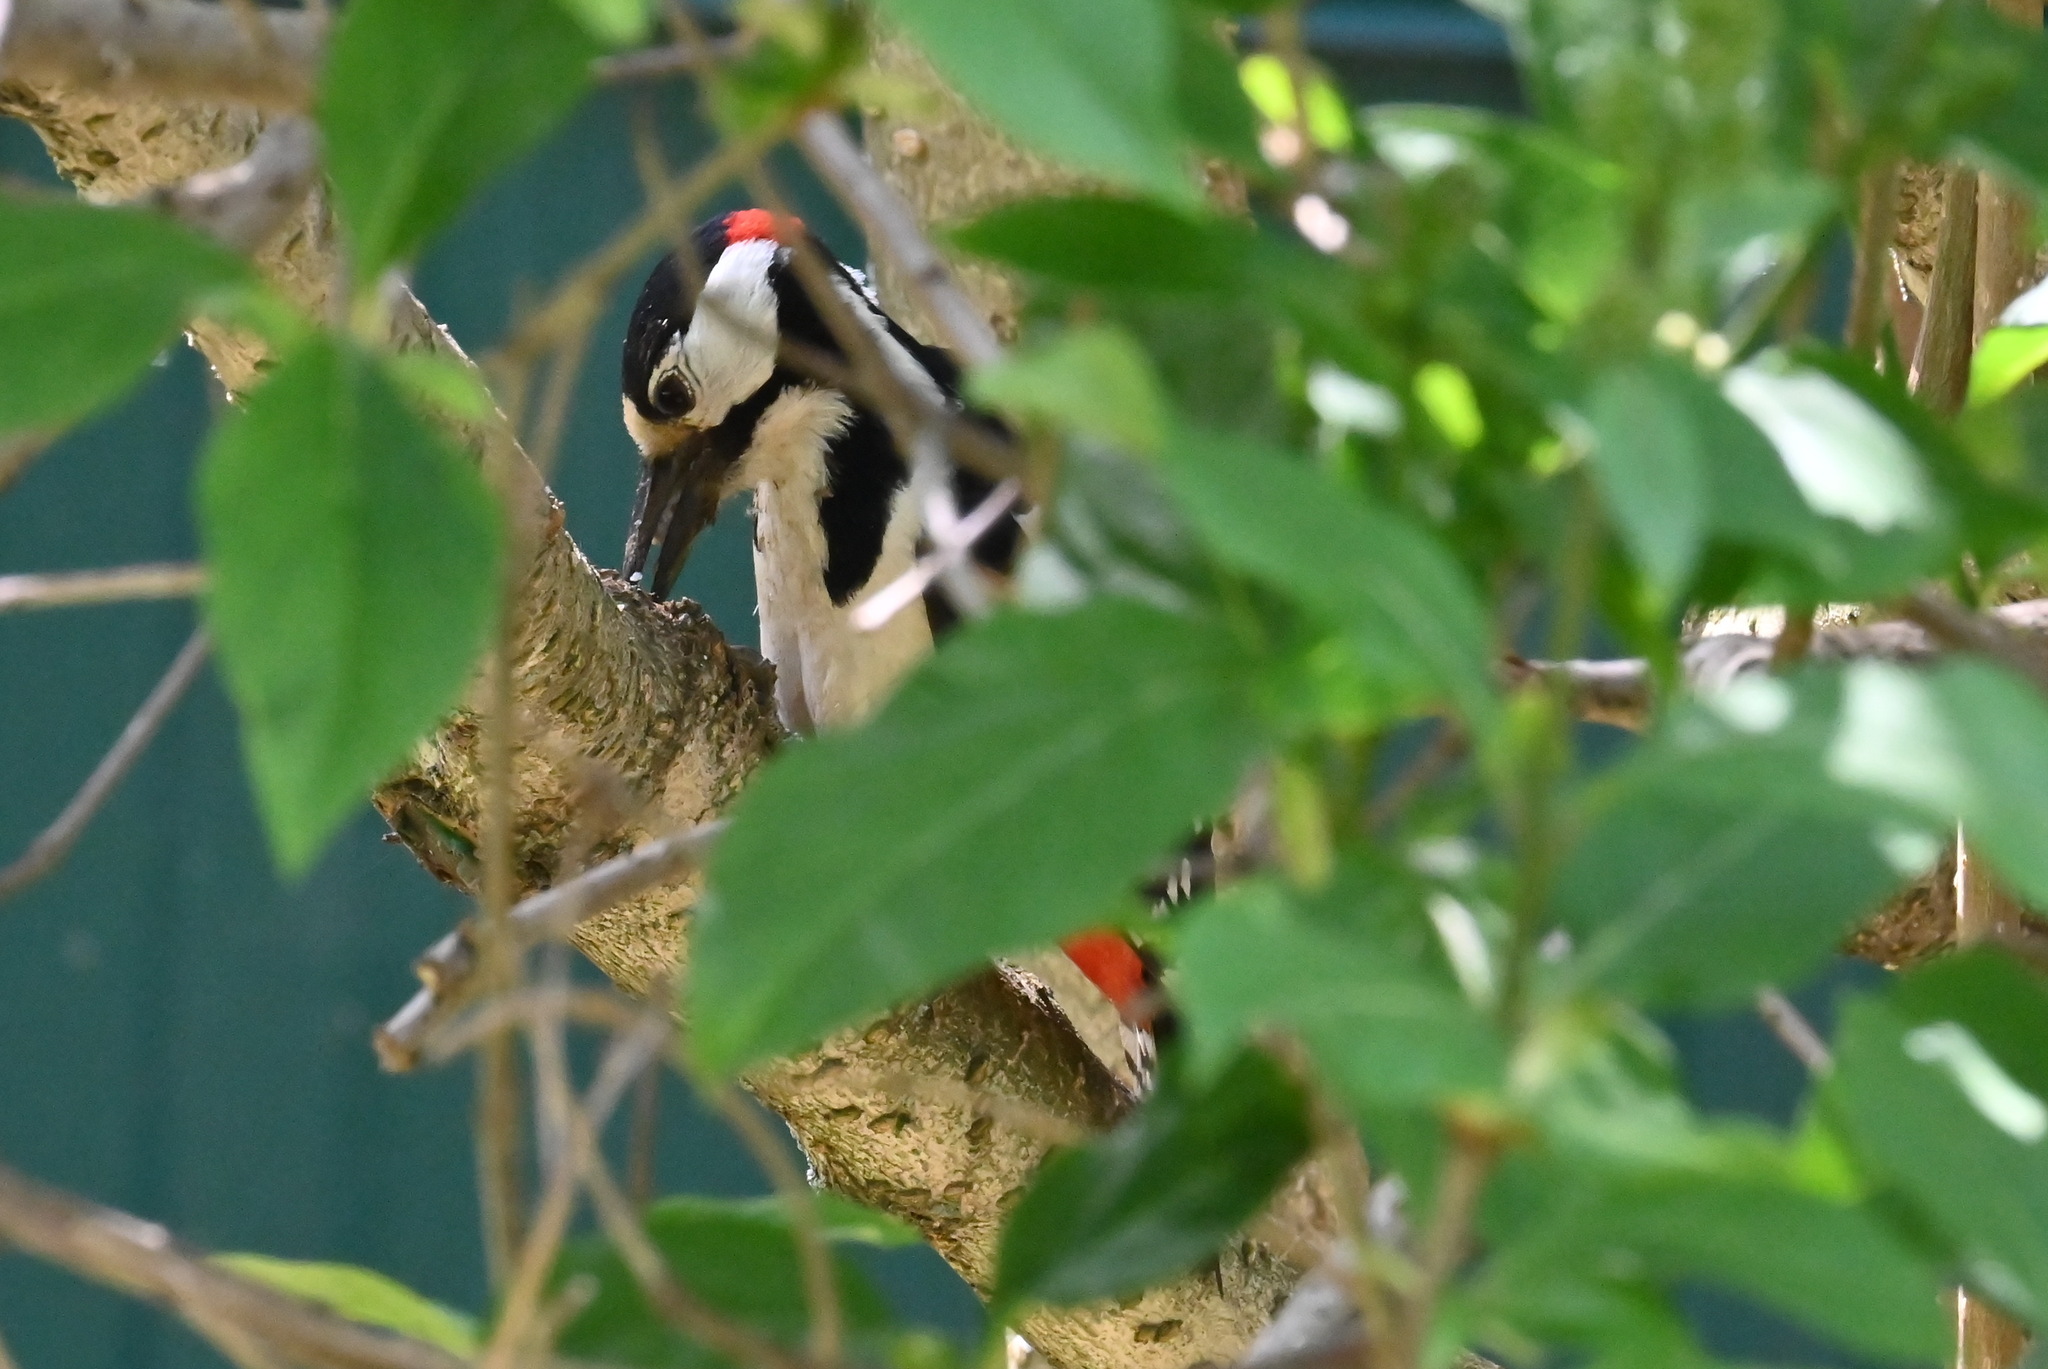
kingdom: Animalia
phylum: Chordata
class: Aves
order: Piciformes
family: Picidae
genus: Dendrocopos
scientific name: Dendrocopos major
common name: Great spotted woodpecker
